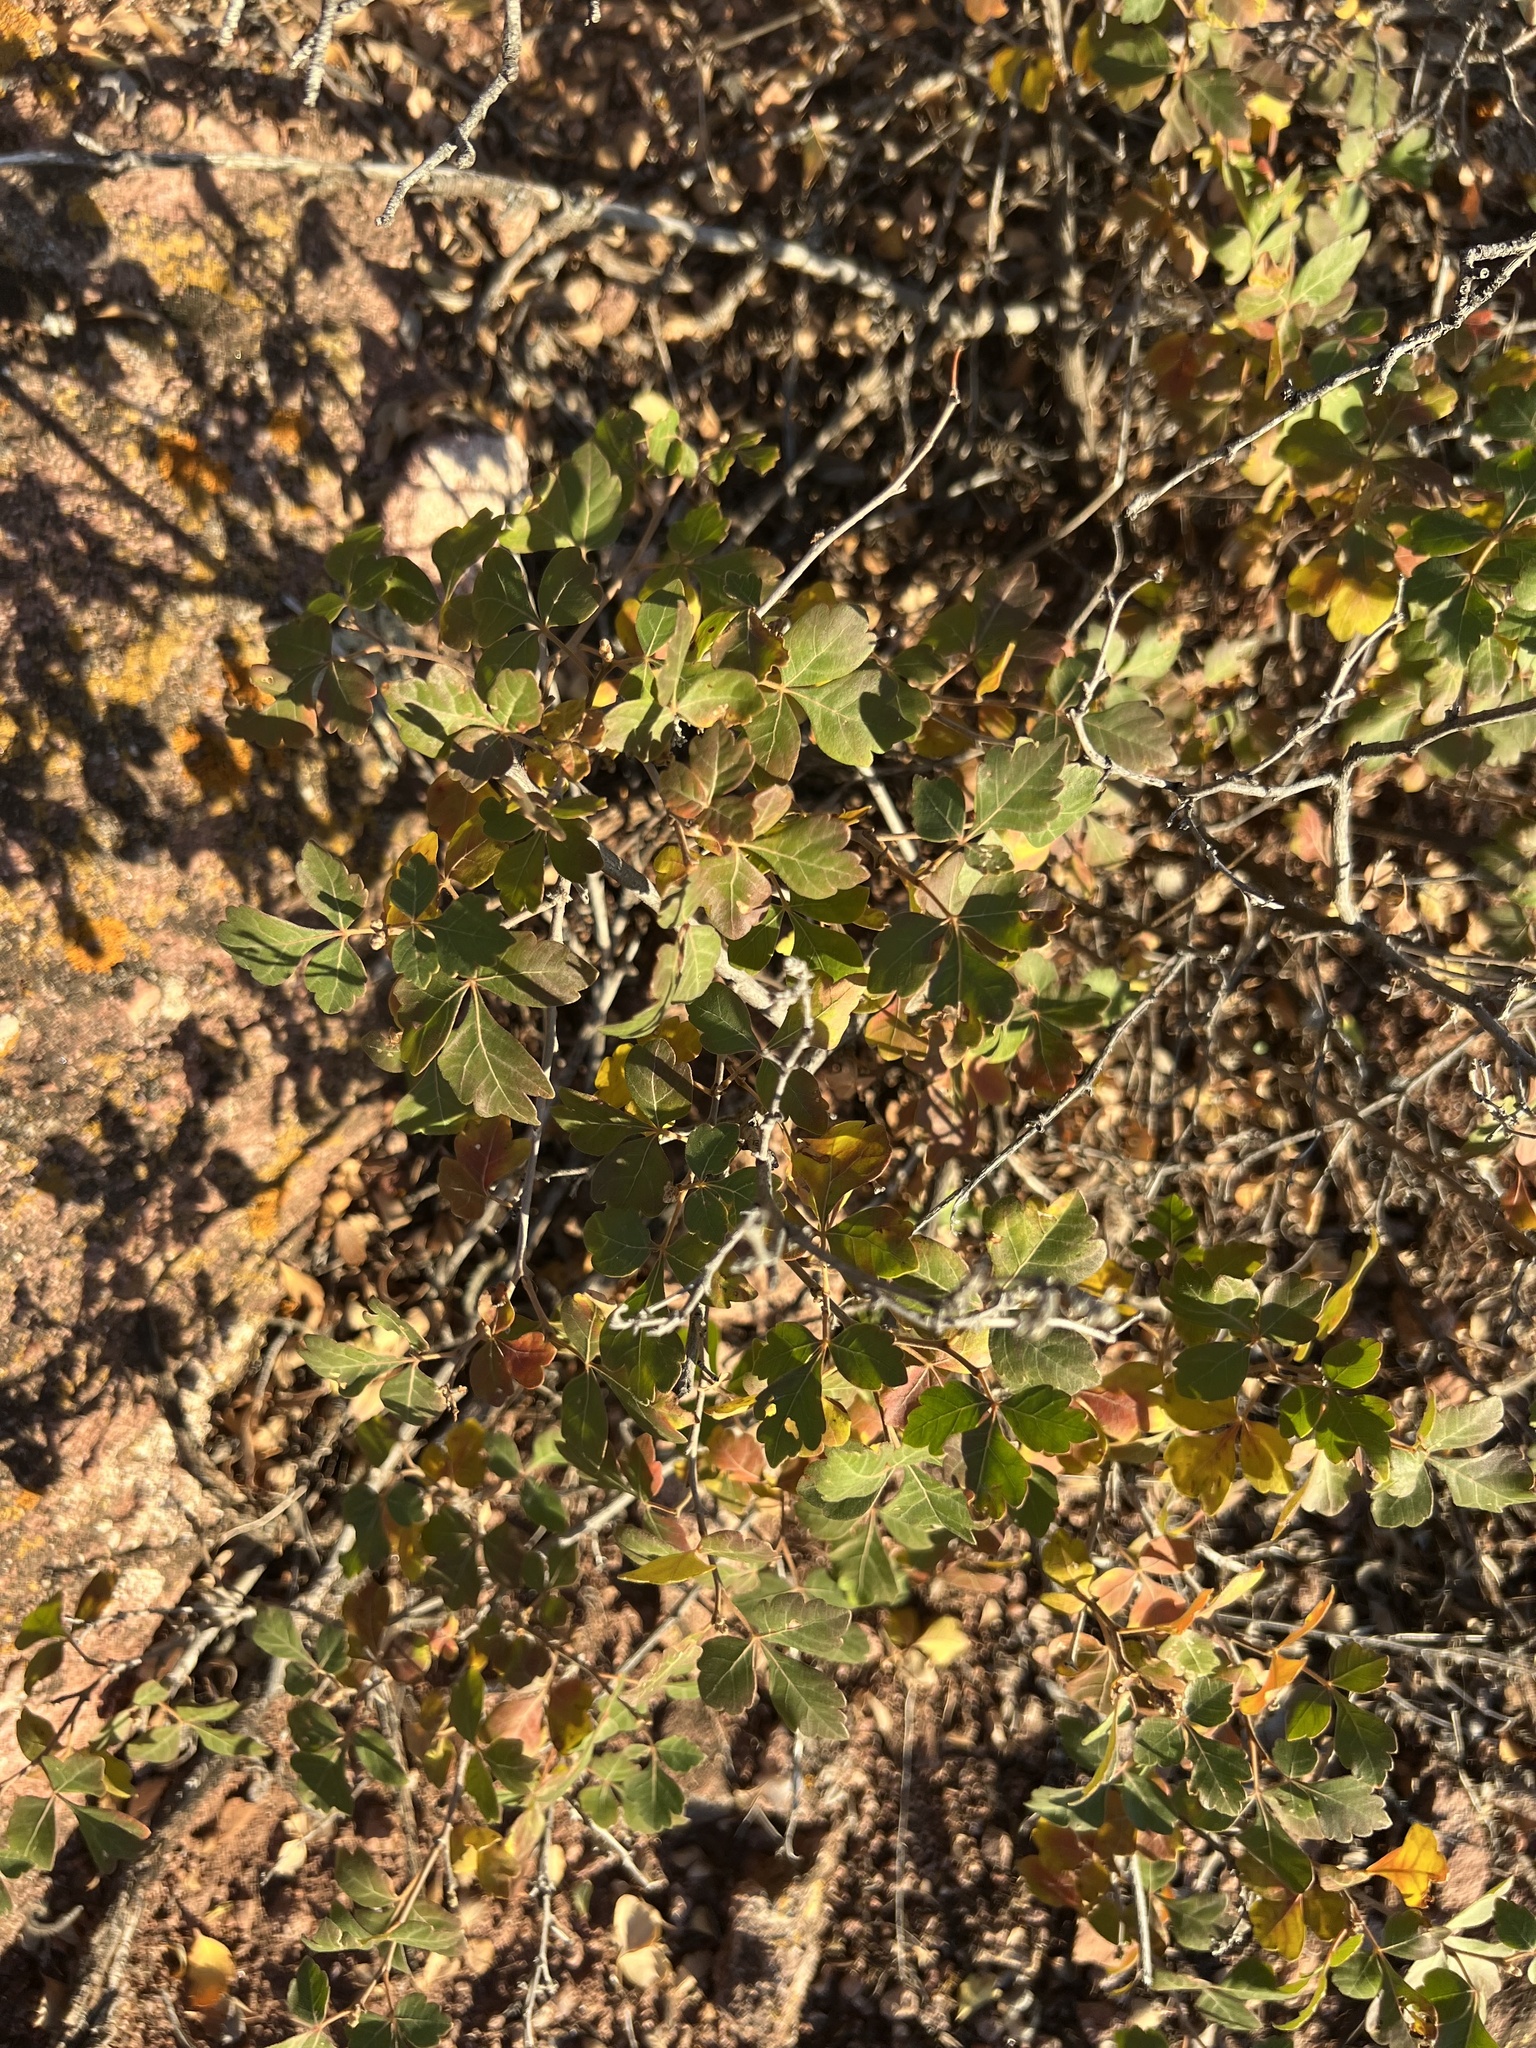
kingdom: Plantae
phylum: Tracheophyta
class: Magnoliopsida
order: Sapindales
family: Anacardiaceae
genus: Rhus
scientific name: Rhus trilobata
